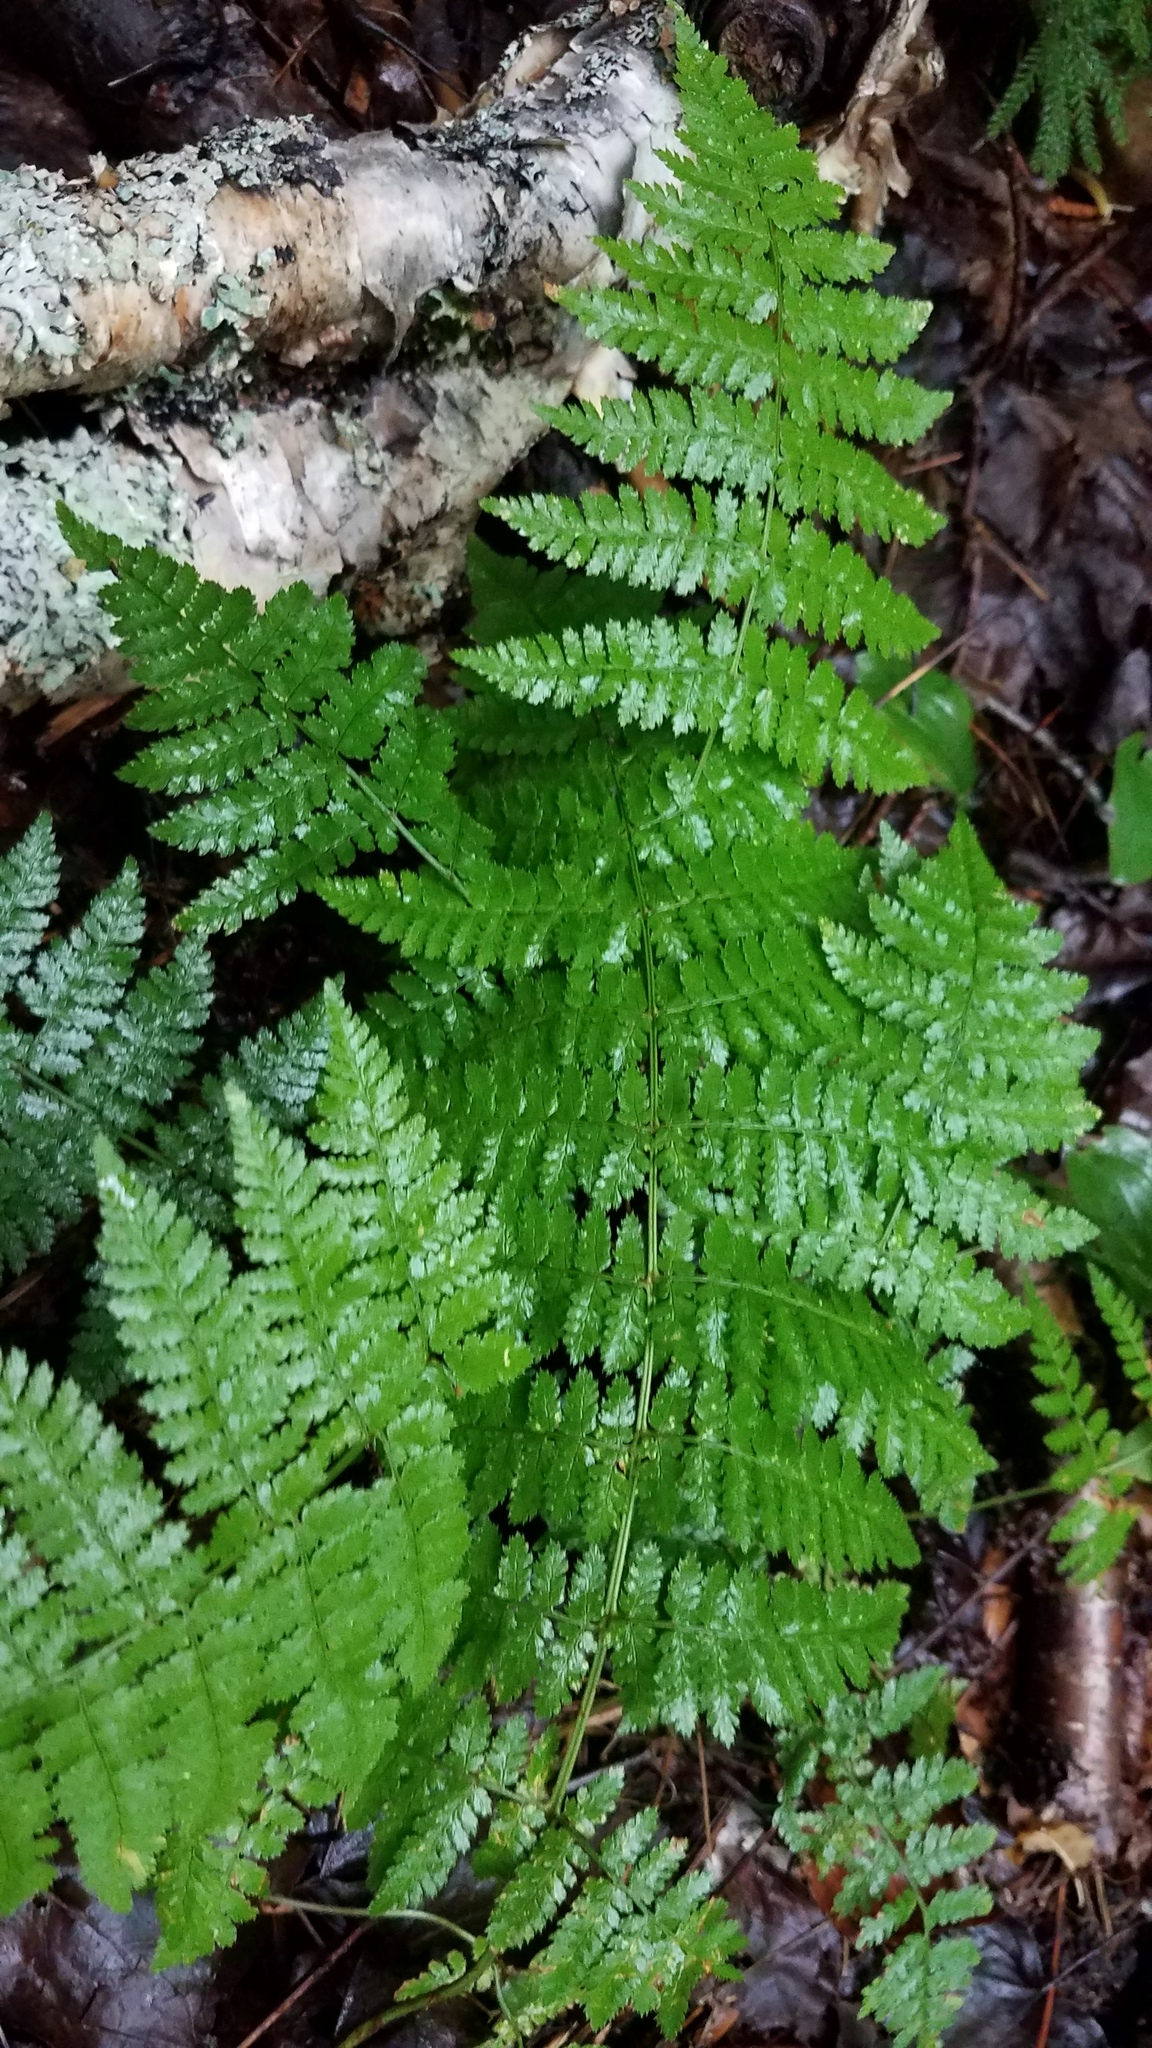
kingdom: Plantae
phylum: Tracheophyta
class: Polypodiopsida
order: Polypodiales
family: Dryopteridaceae
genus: Dryopteris
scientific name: Dryopteris intermedia
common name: Evergreen wood fern
